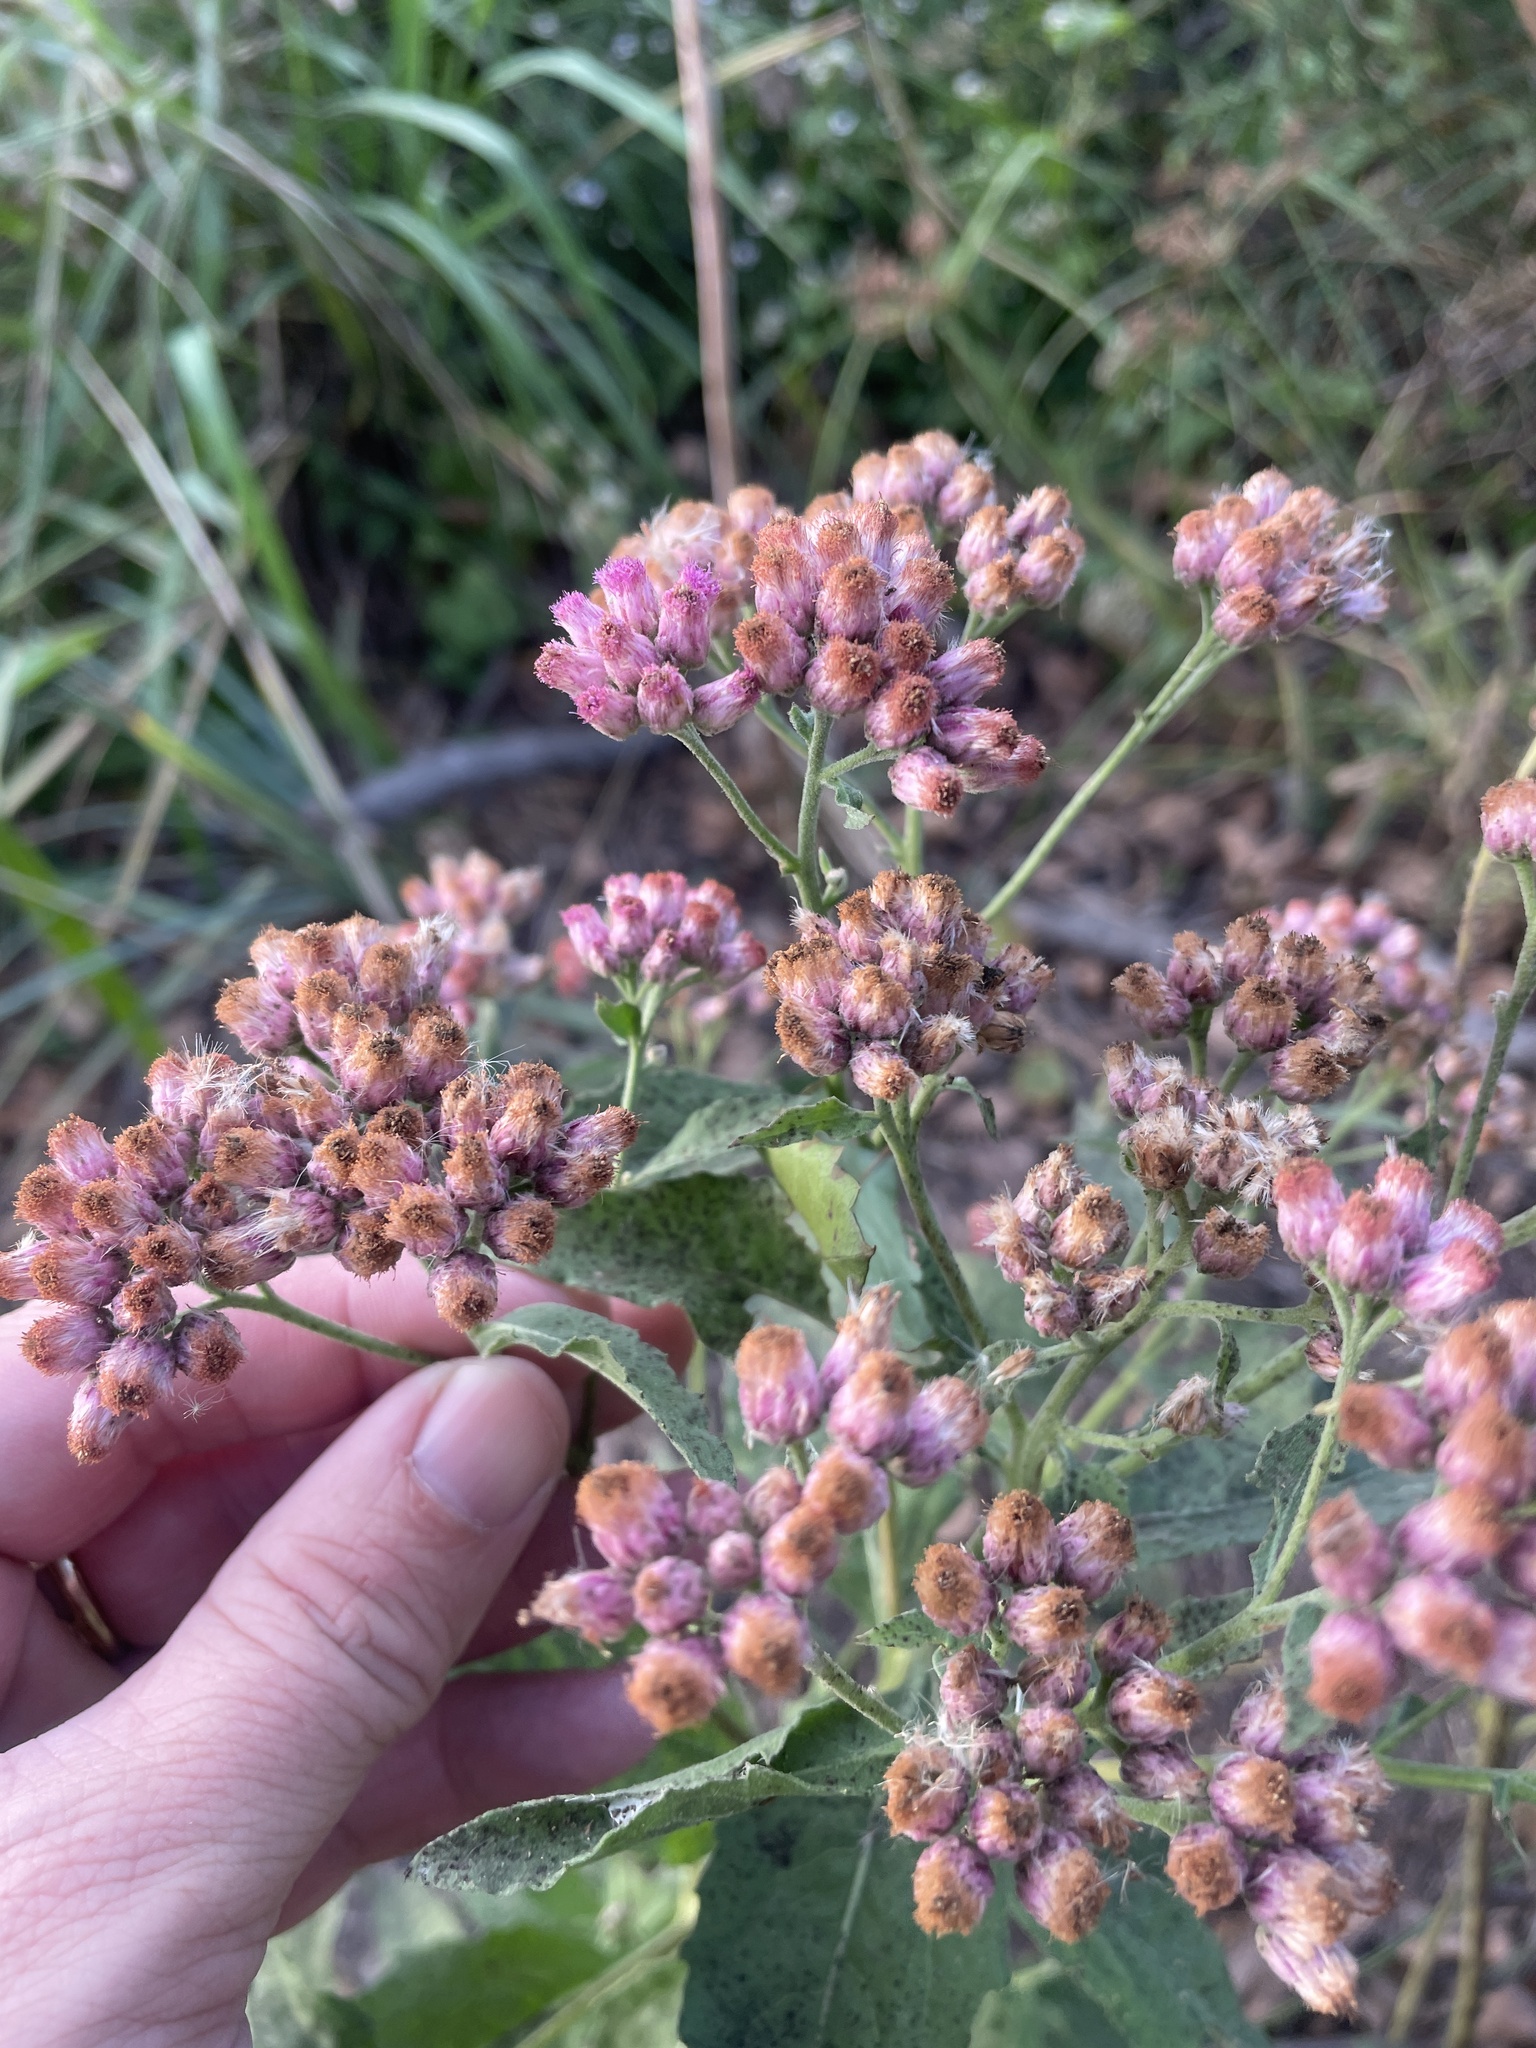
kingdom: Plantae
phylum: Tracheophyta
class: Magnoliopsida
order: Asterales
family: Asteraceae
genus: Pluchea
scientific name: Pluchea odorata
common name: Saltmarsh fleabane
